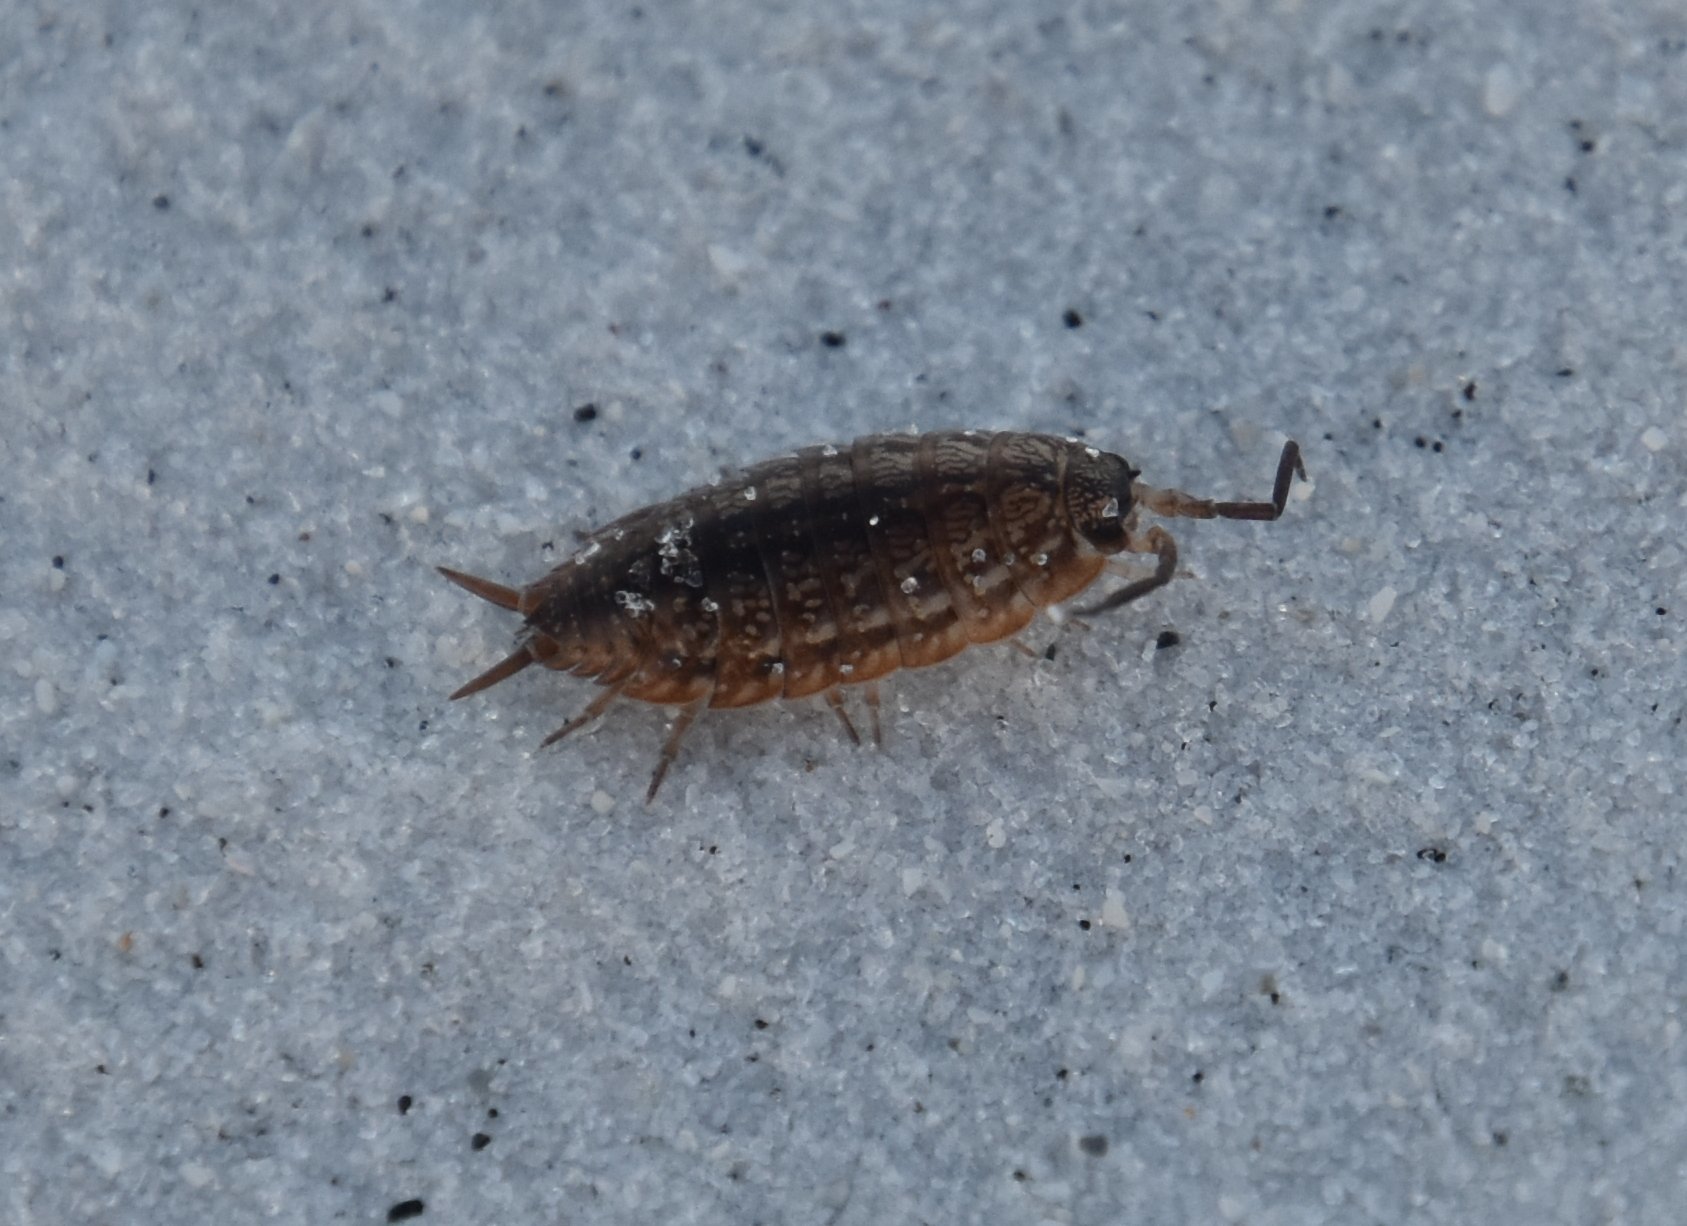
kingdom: Animalia
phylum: Arthropoda
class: Malacostraca
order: Isopoda
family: Porcellionidae
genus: Porcellionides
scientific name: Porcellionides virgatus
